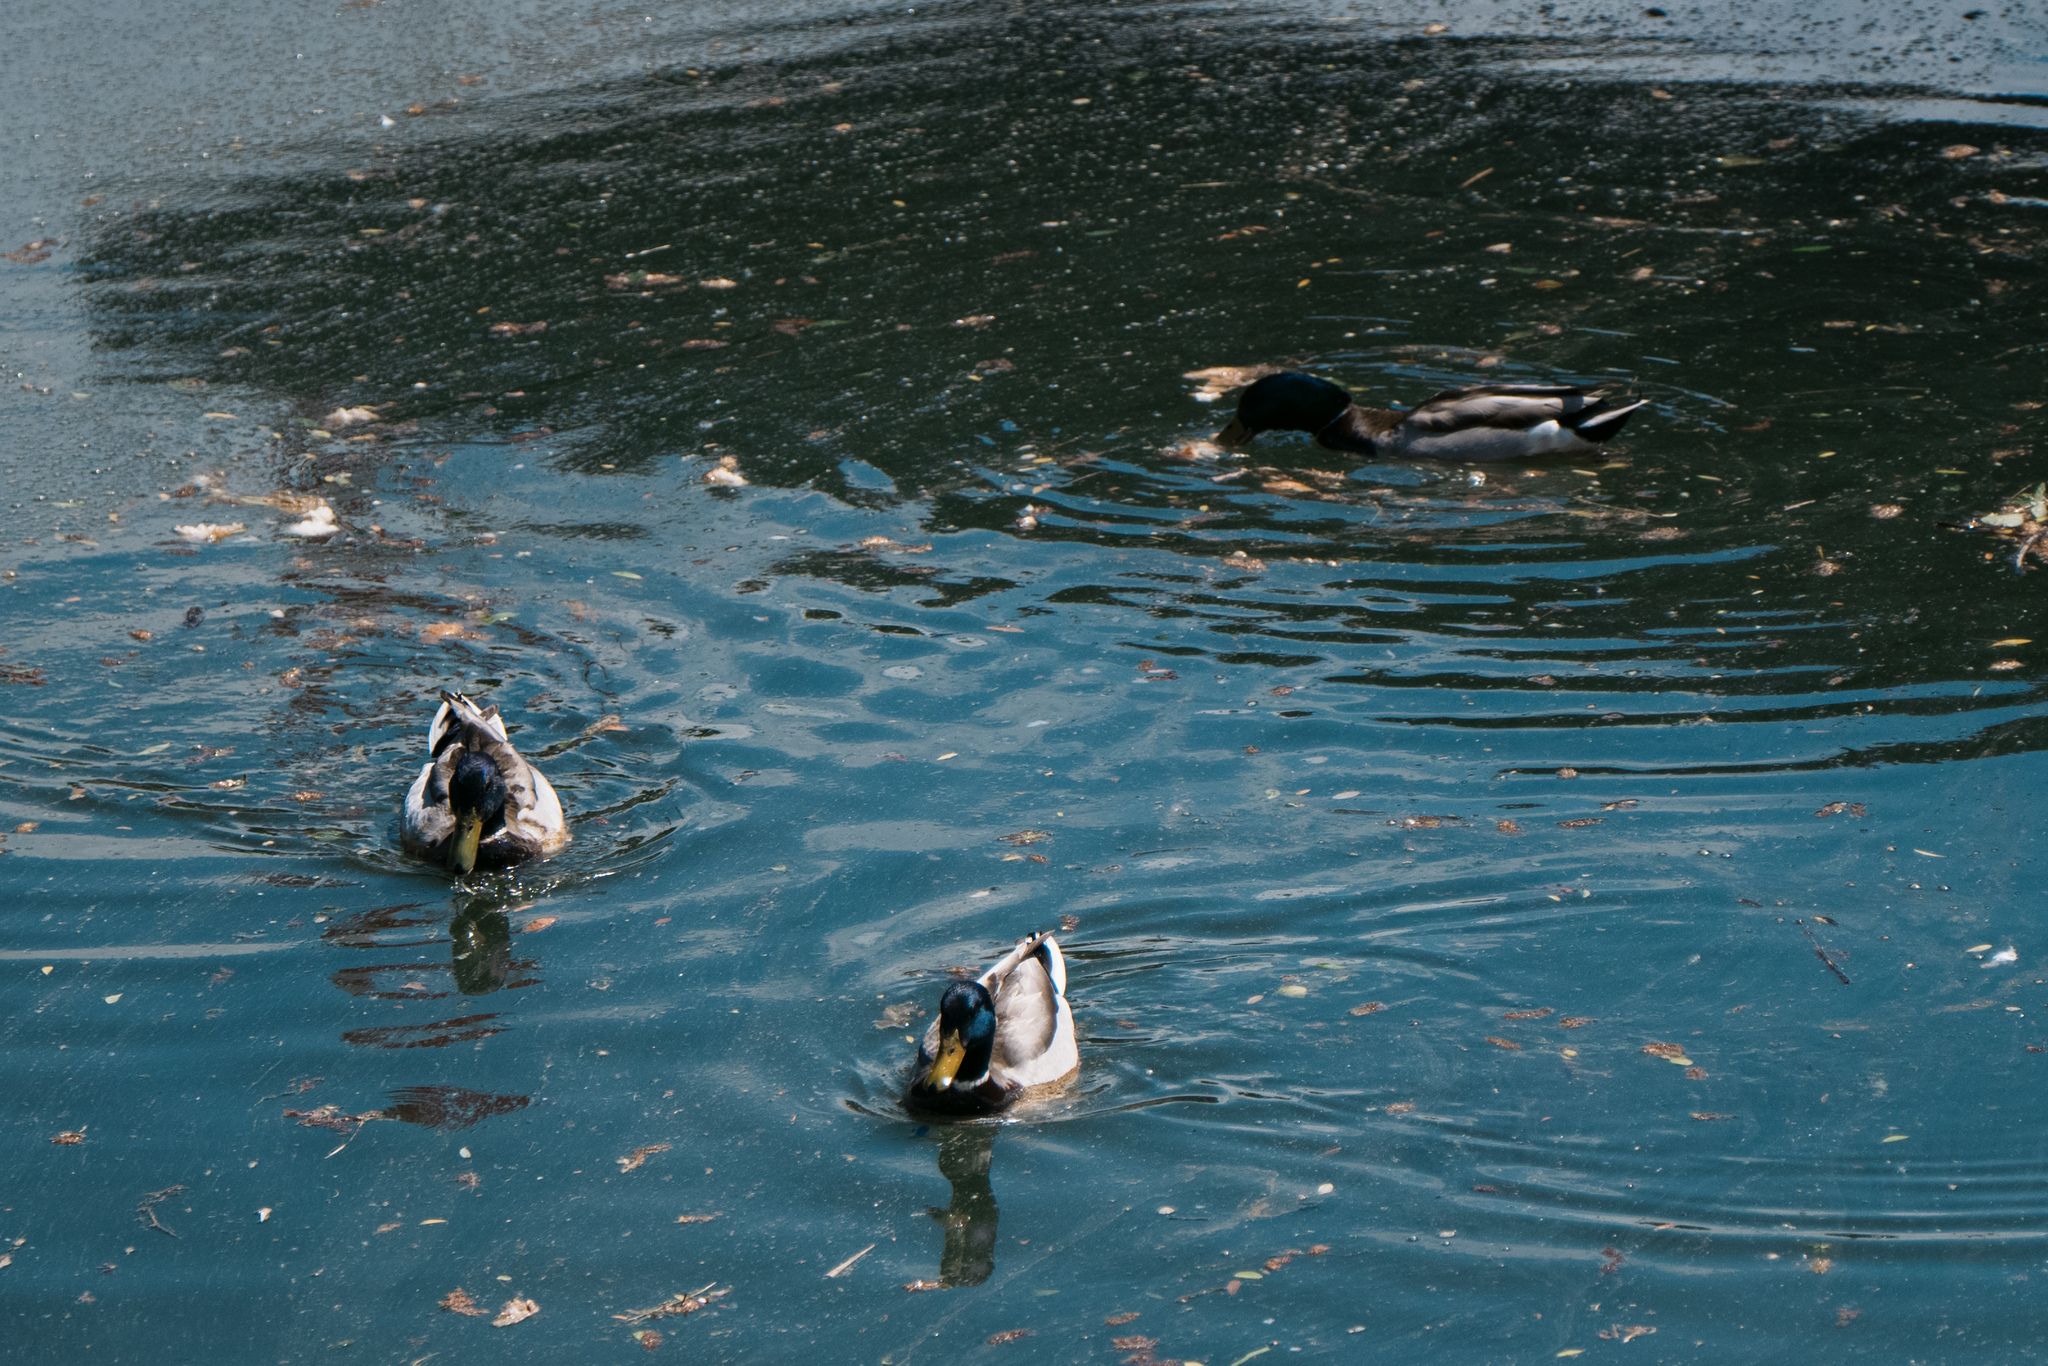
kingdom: Animalia
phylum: Chordata
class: Aves
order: Anseriformes
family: Anatidae
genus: Anas
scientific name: Anas platyrhynchos
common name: Mallard
